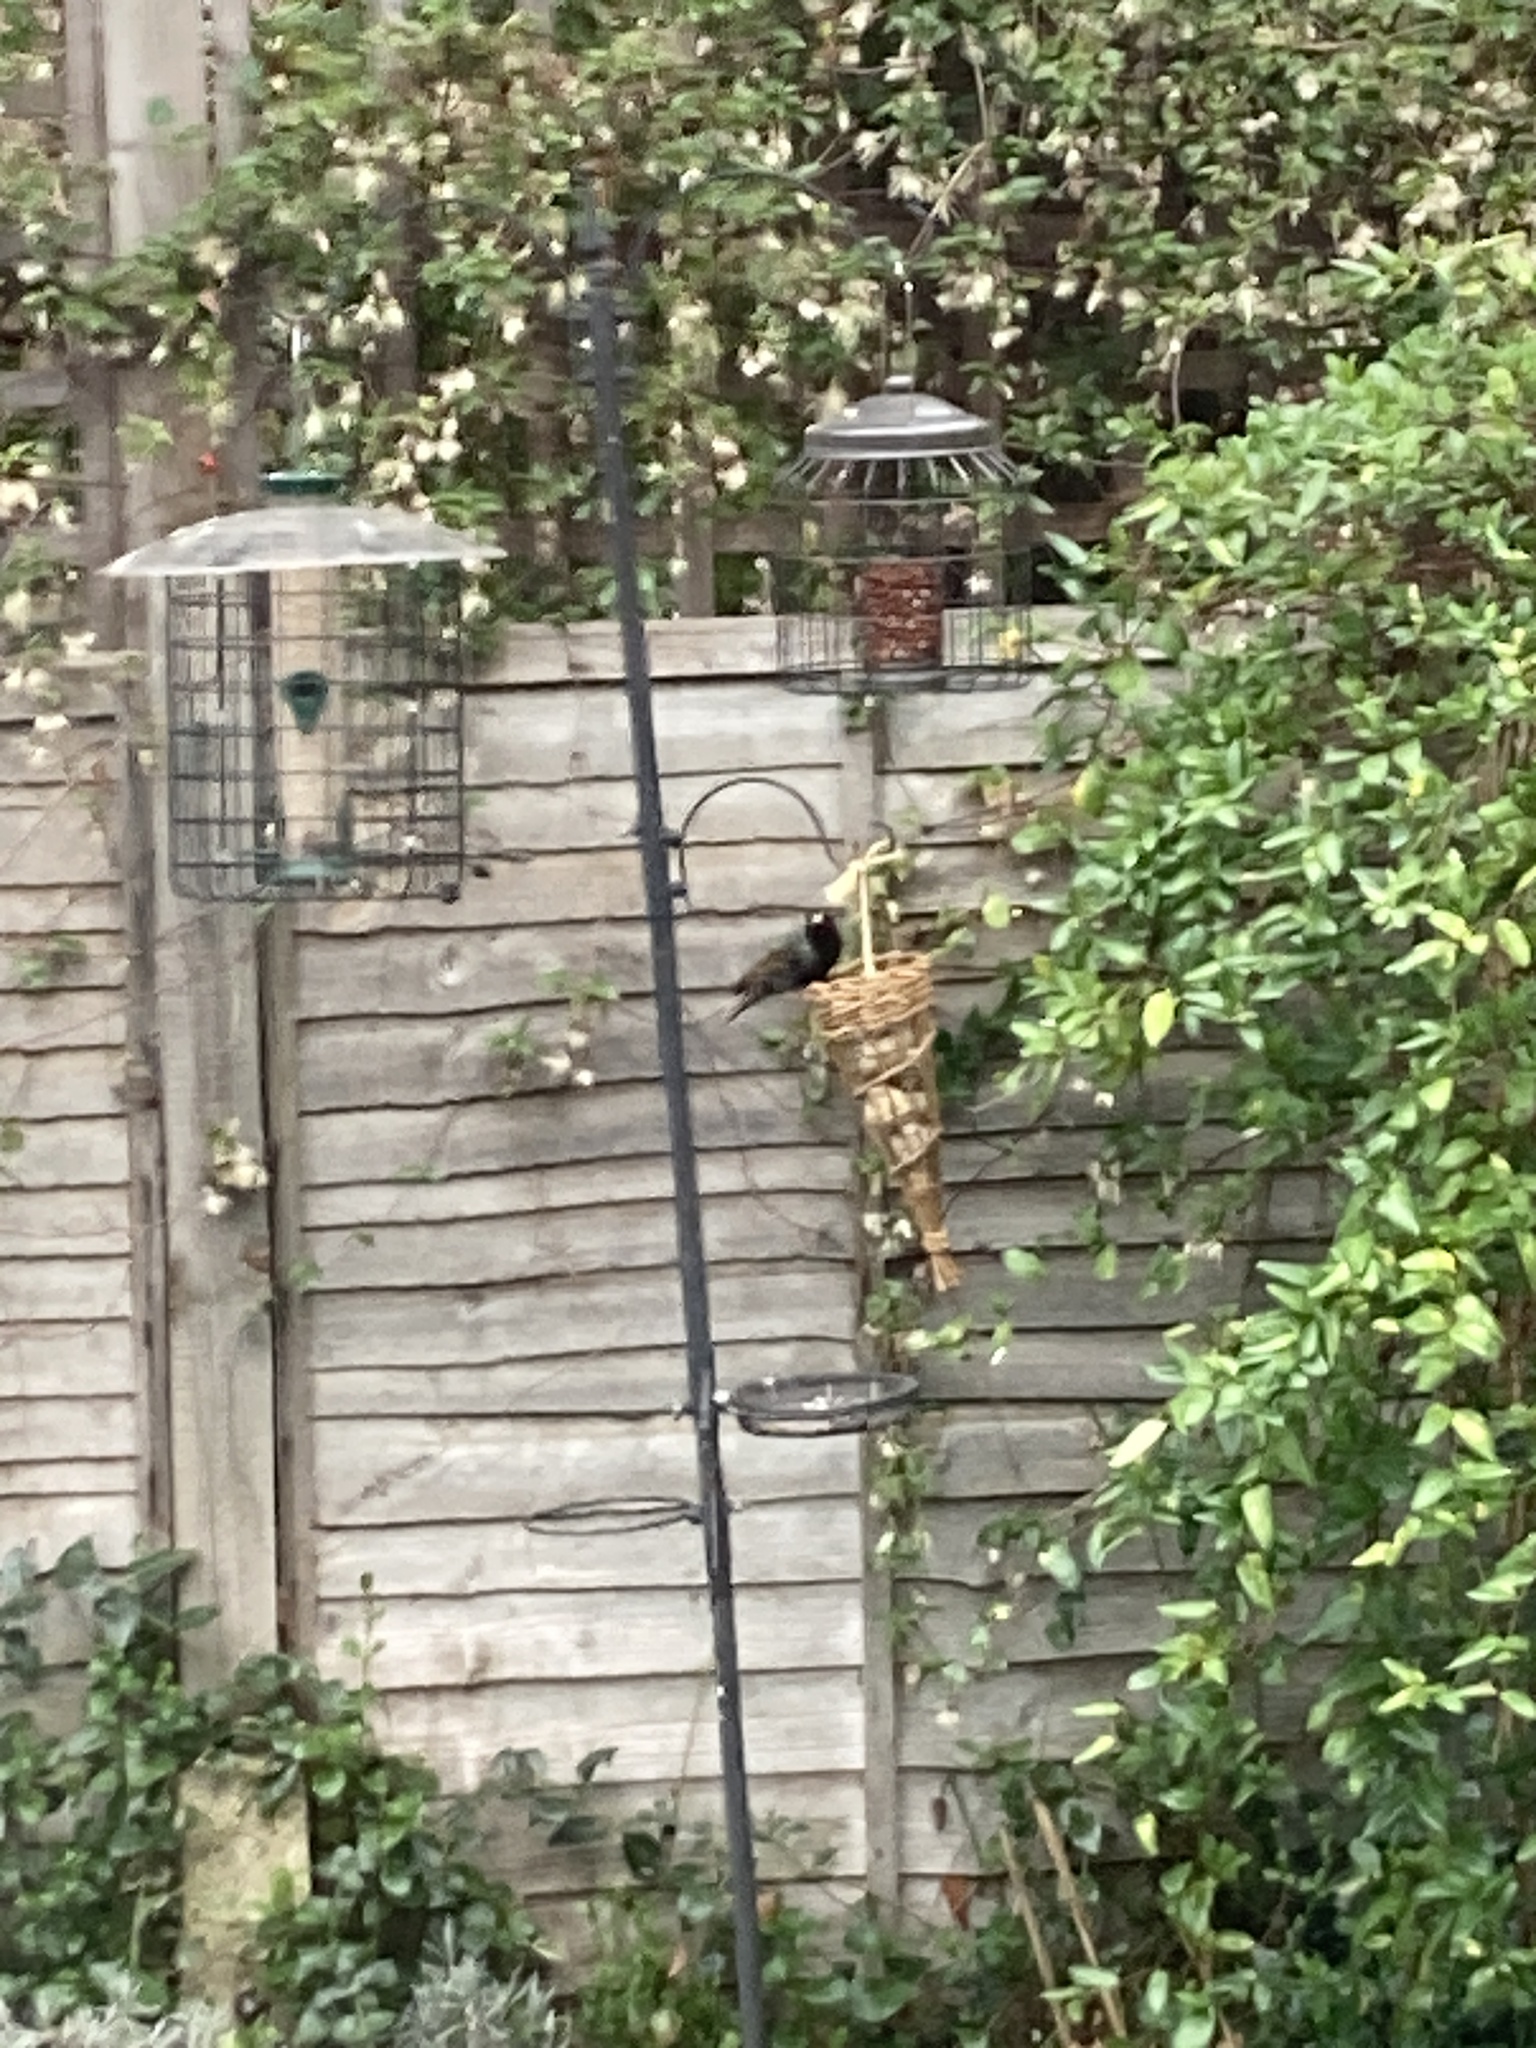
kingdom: Animalia
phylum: Chordata
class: Aves
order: Passeriformes
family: Sturnidae
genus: Sturnus
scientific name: Sturnus vulgaris
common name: Common starling
